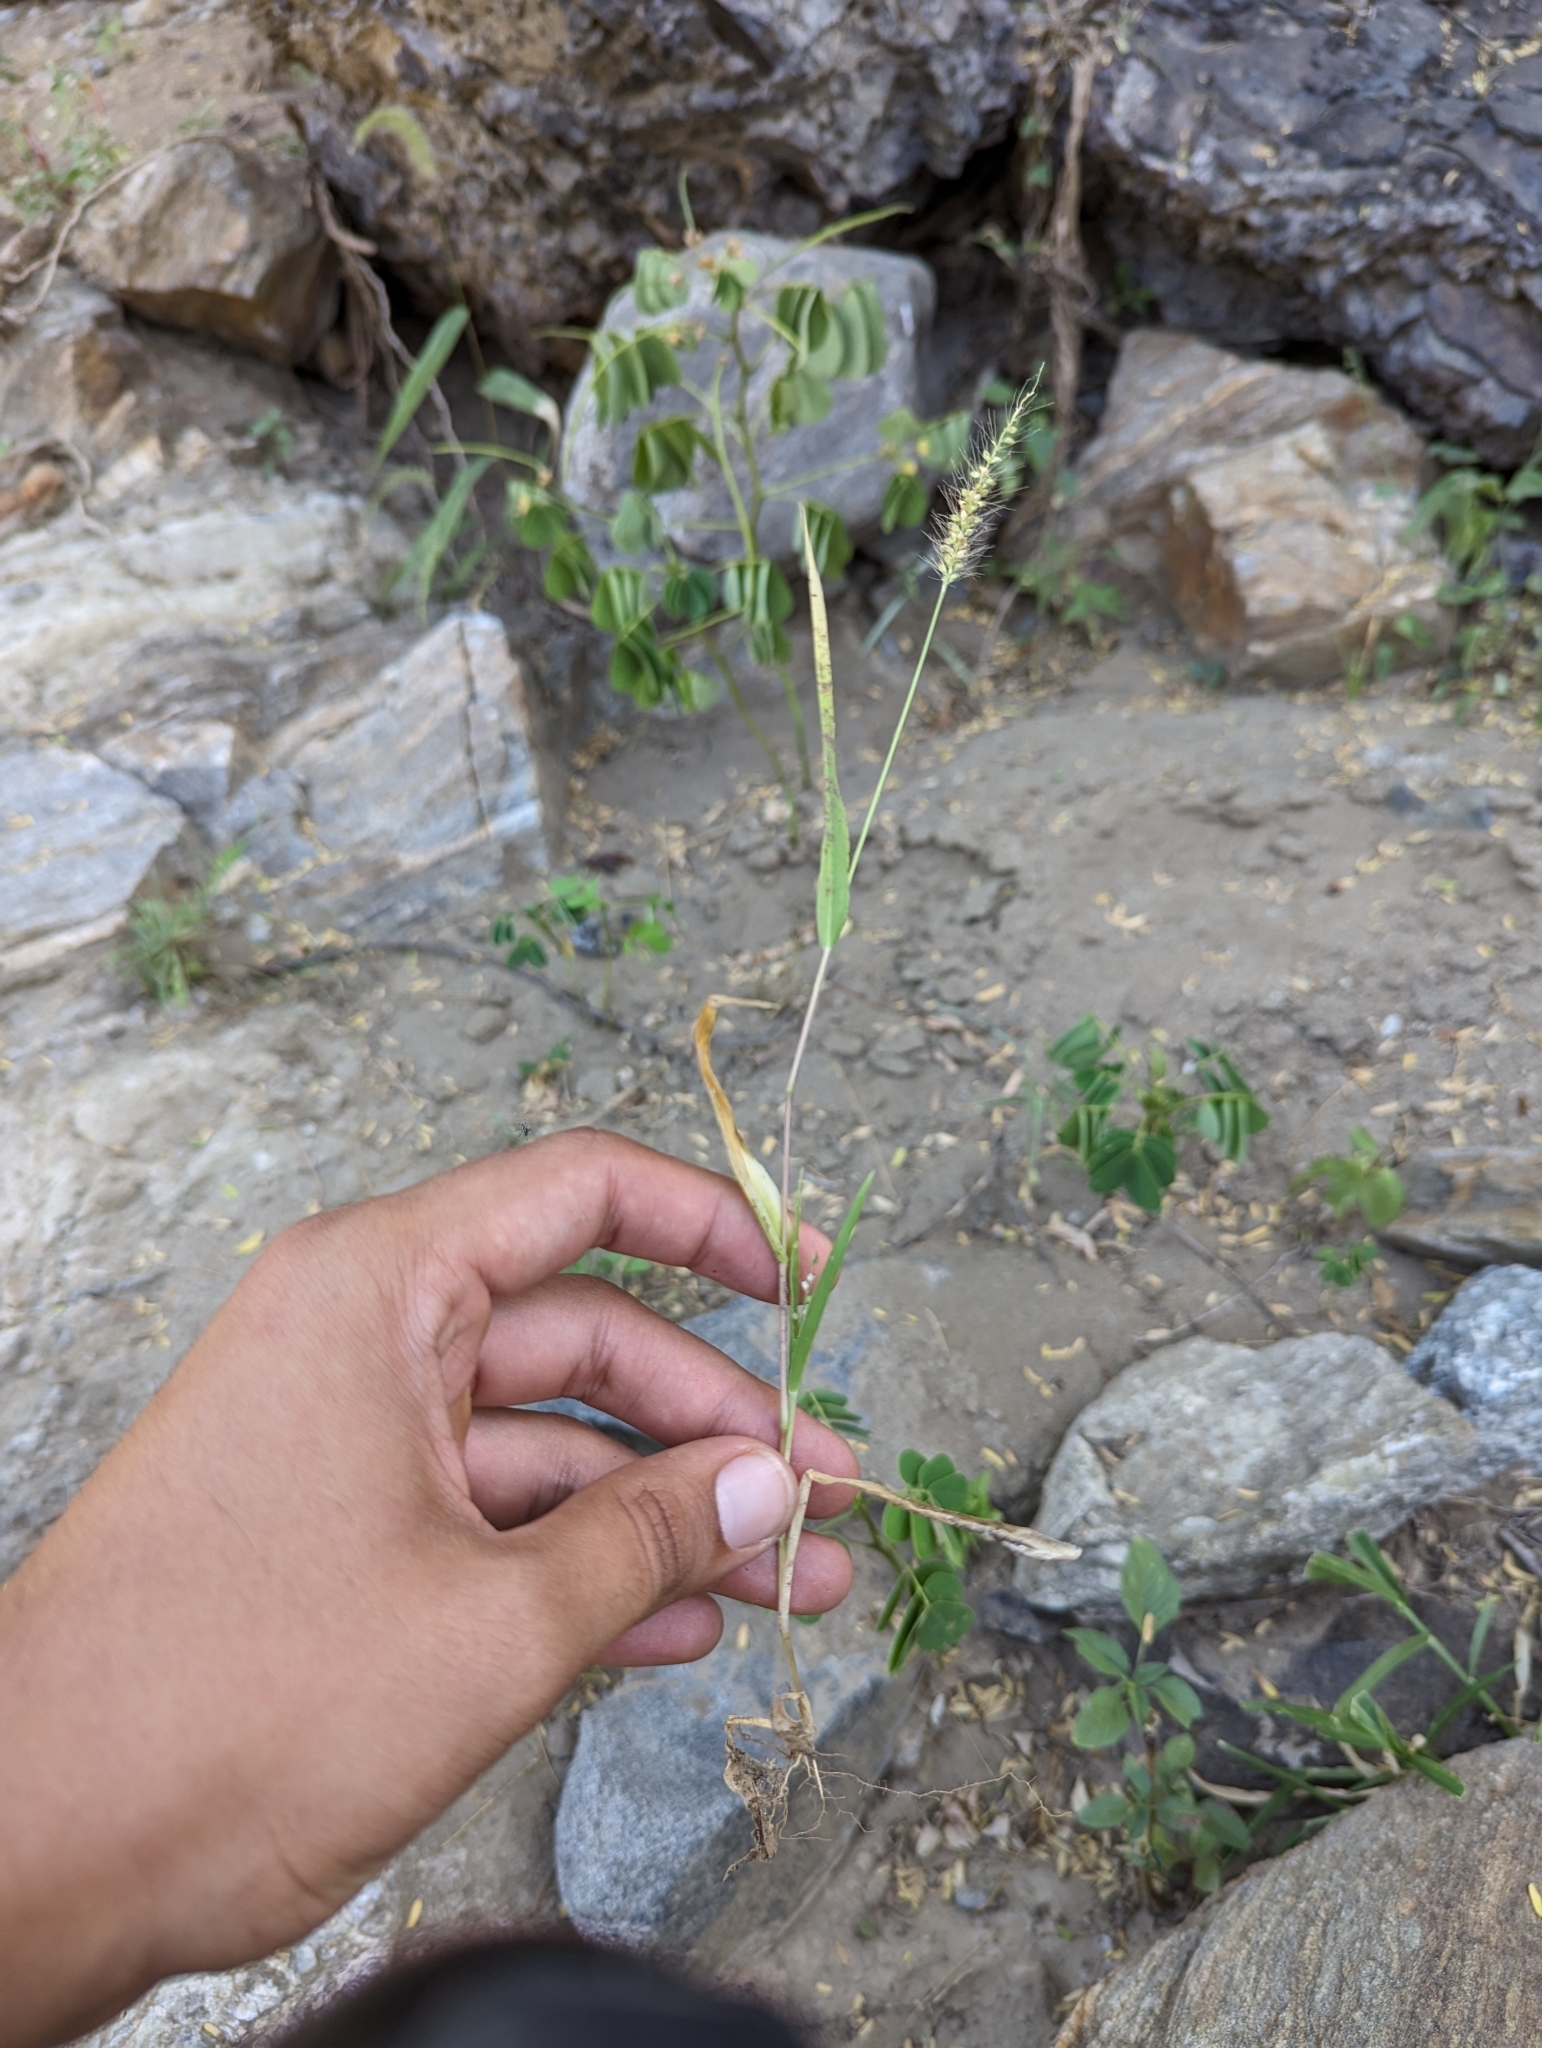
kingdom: Plantae
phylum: Tracheophyta
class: Liliopsida
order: Poales
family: Poaceae
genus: Setaria
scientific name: Setaria grisebachii
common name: Grisebach's bristle grass
